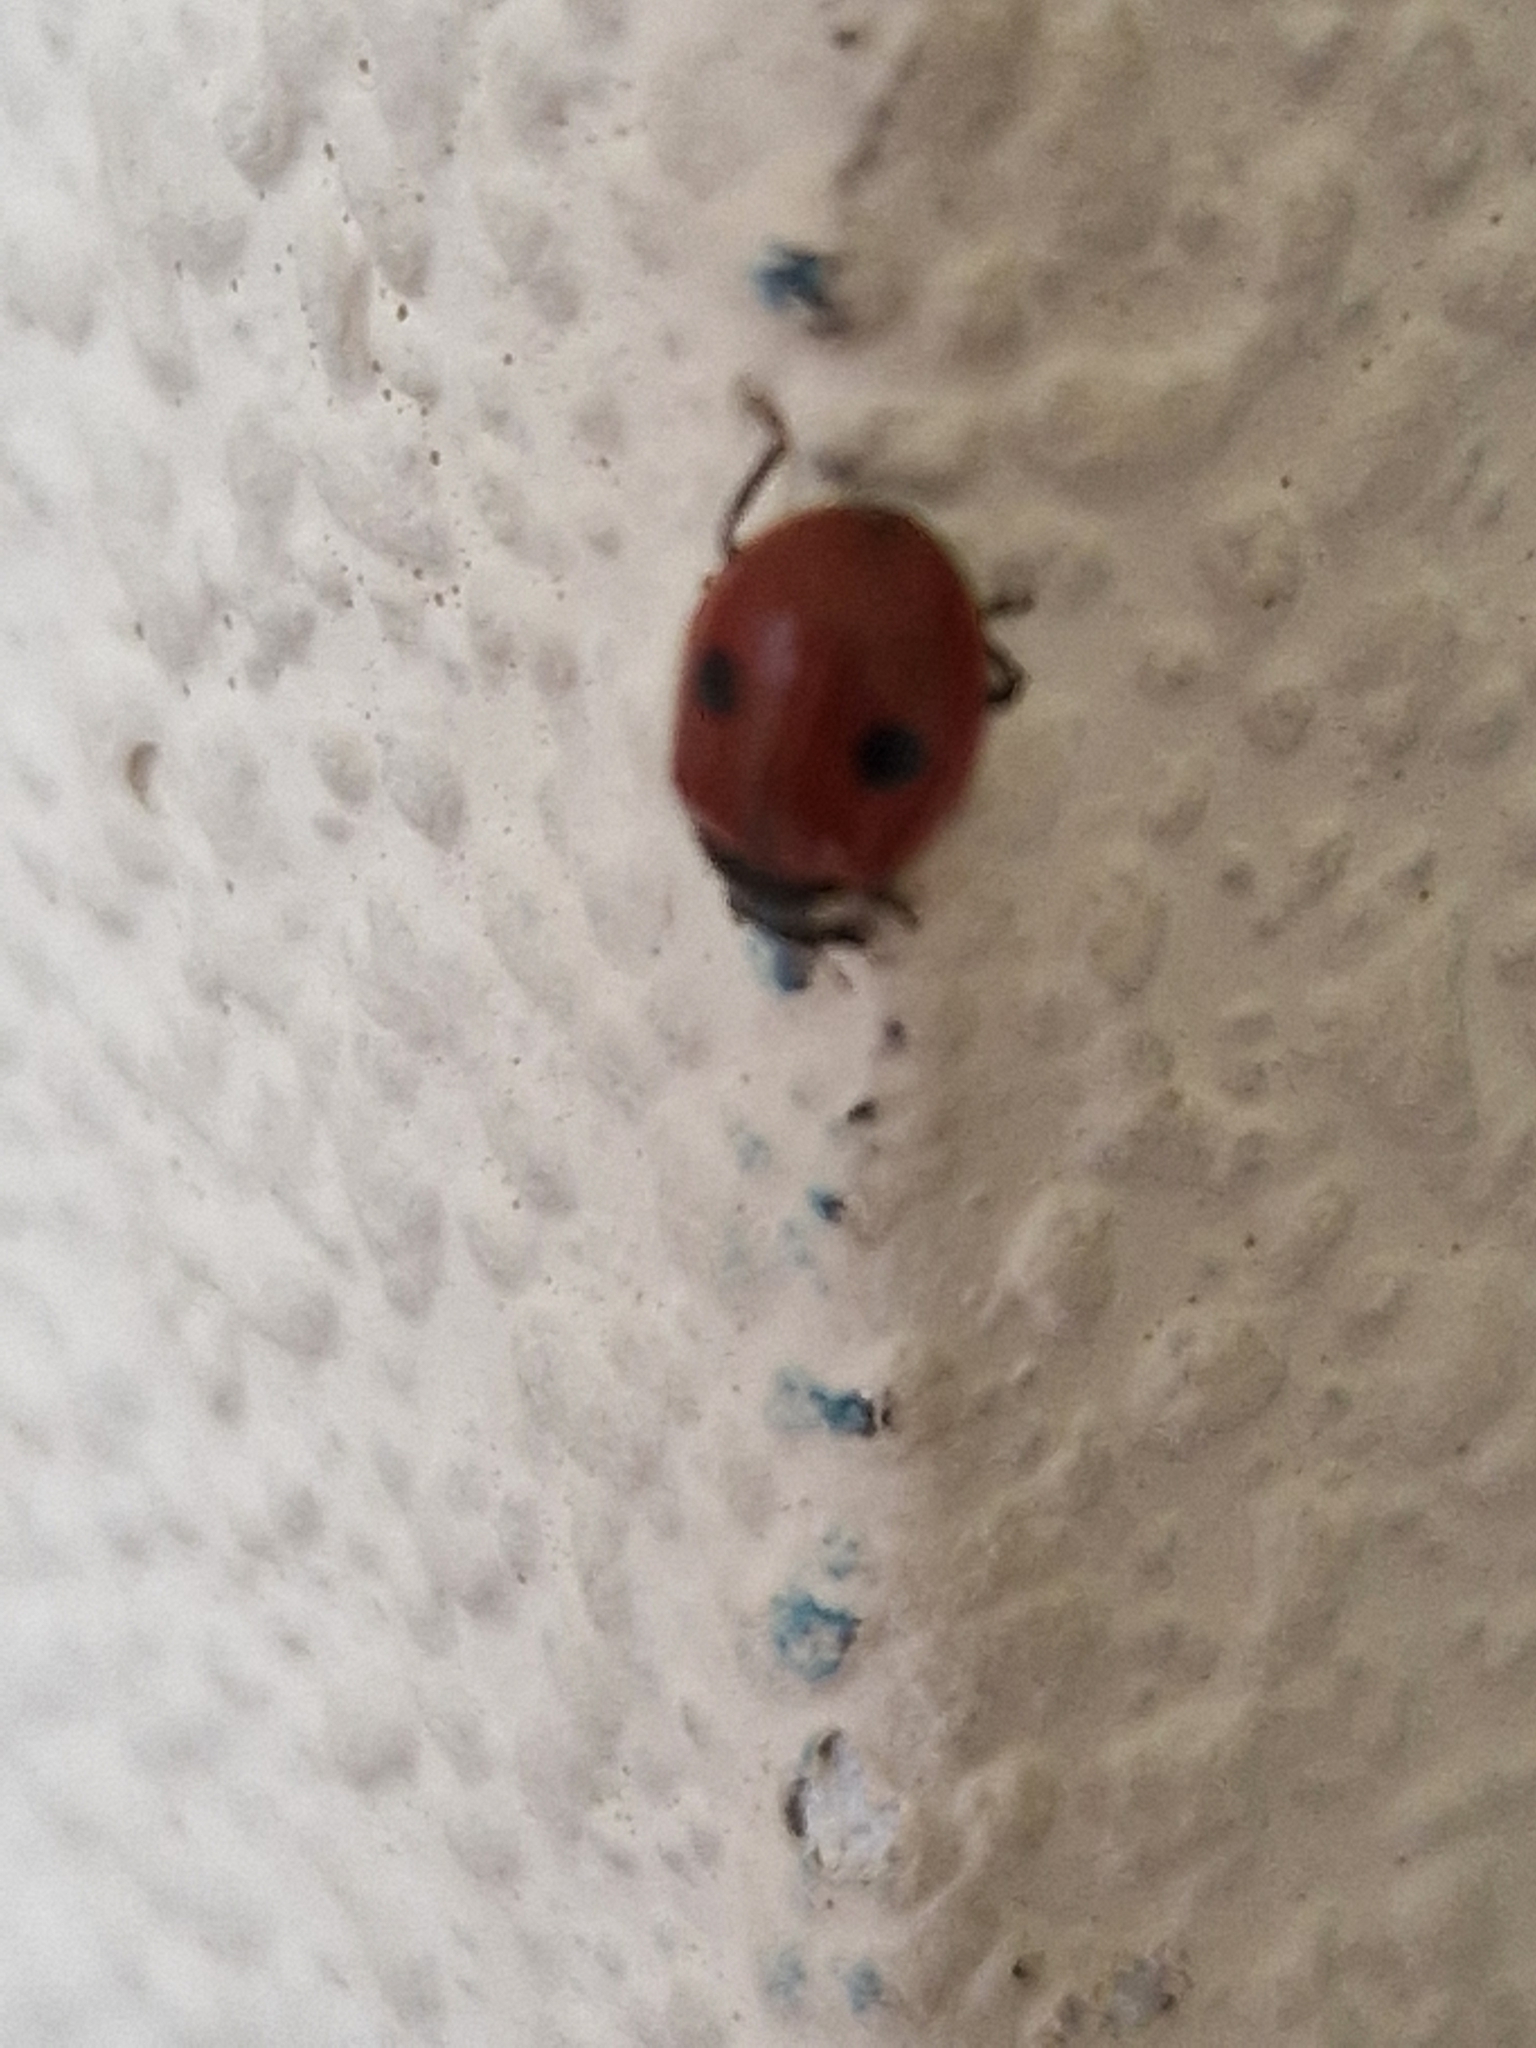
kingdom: Animalia
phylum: Arthropoda
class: Insecta
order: Coleoptera
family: Coccinellidae
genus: Adalia
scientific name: Adalia bipunctata
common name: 2-spot ladybird
